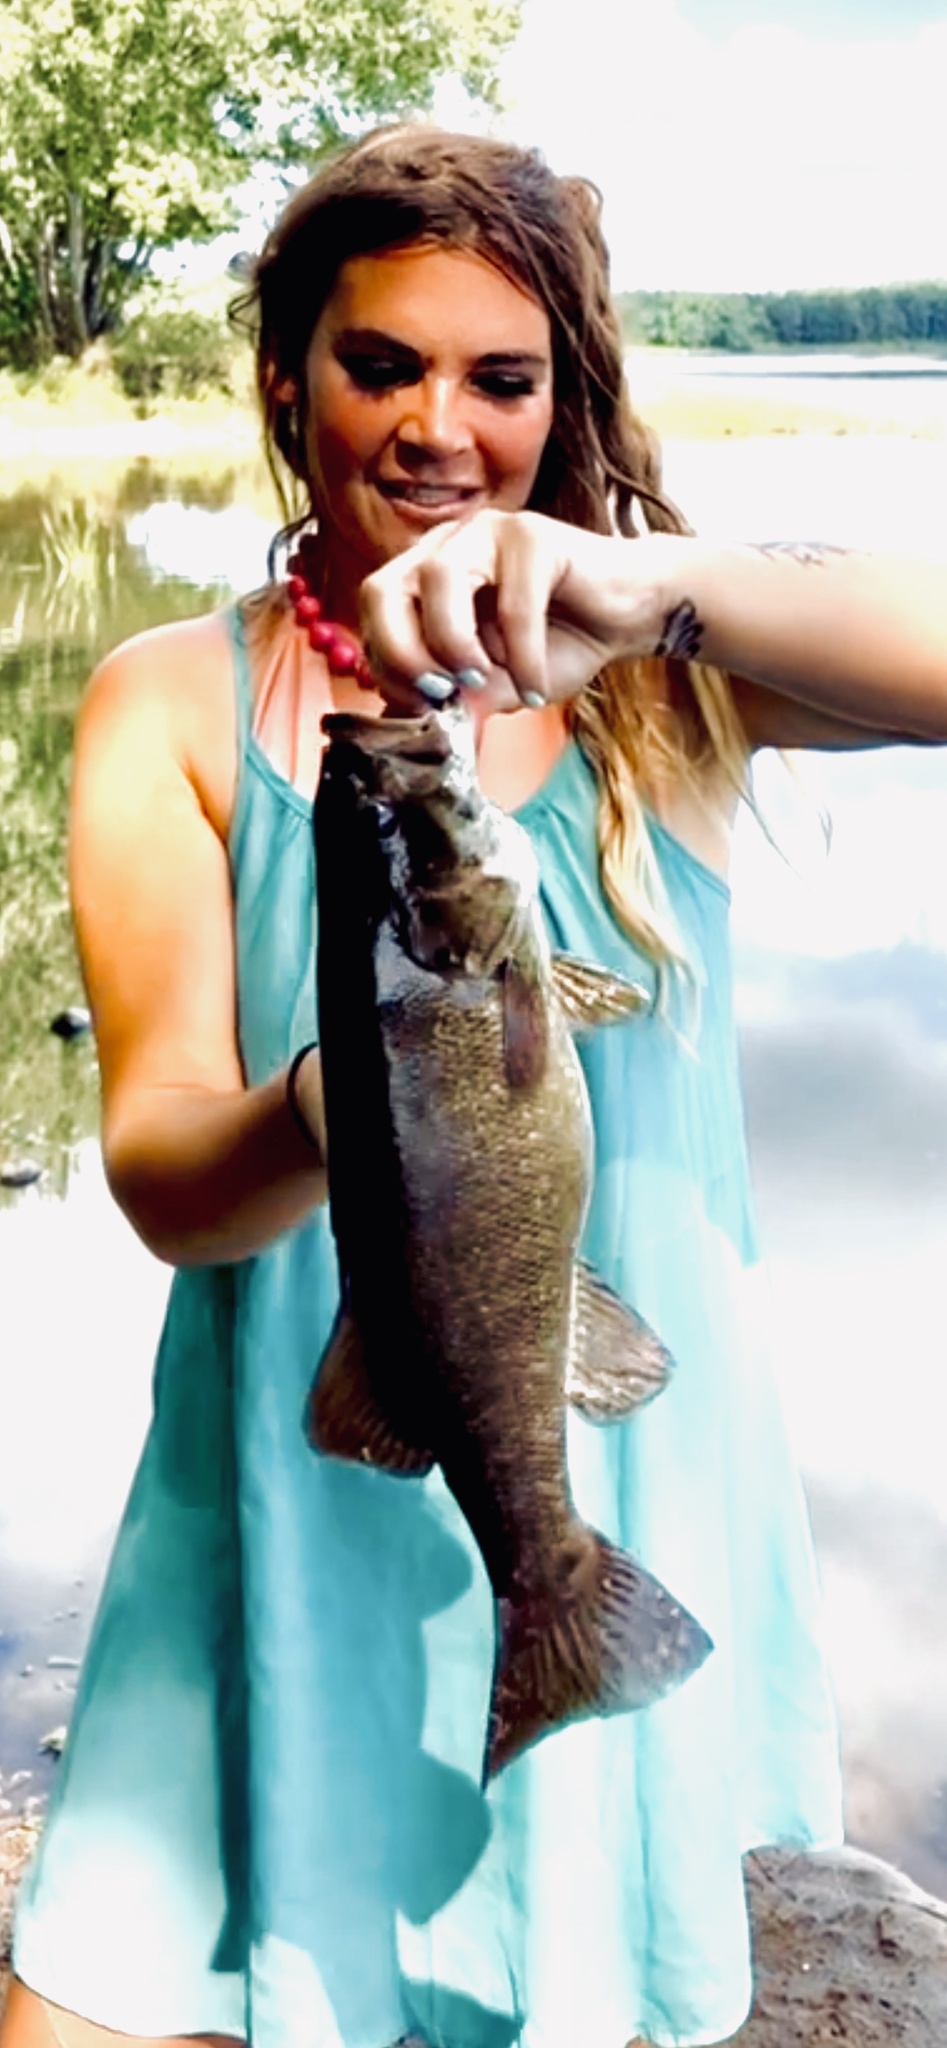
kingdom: Animalia
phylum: Chordata
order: Perciformes
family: Centrarchidae
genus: Micropterus
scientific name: Micropterus dolomieu
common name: Smallmouth bass
